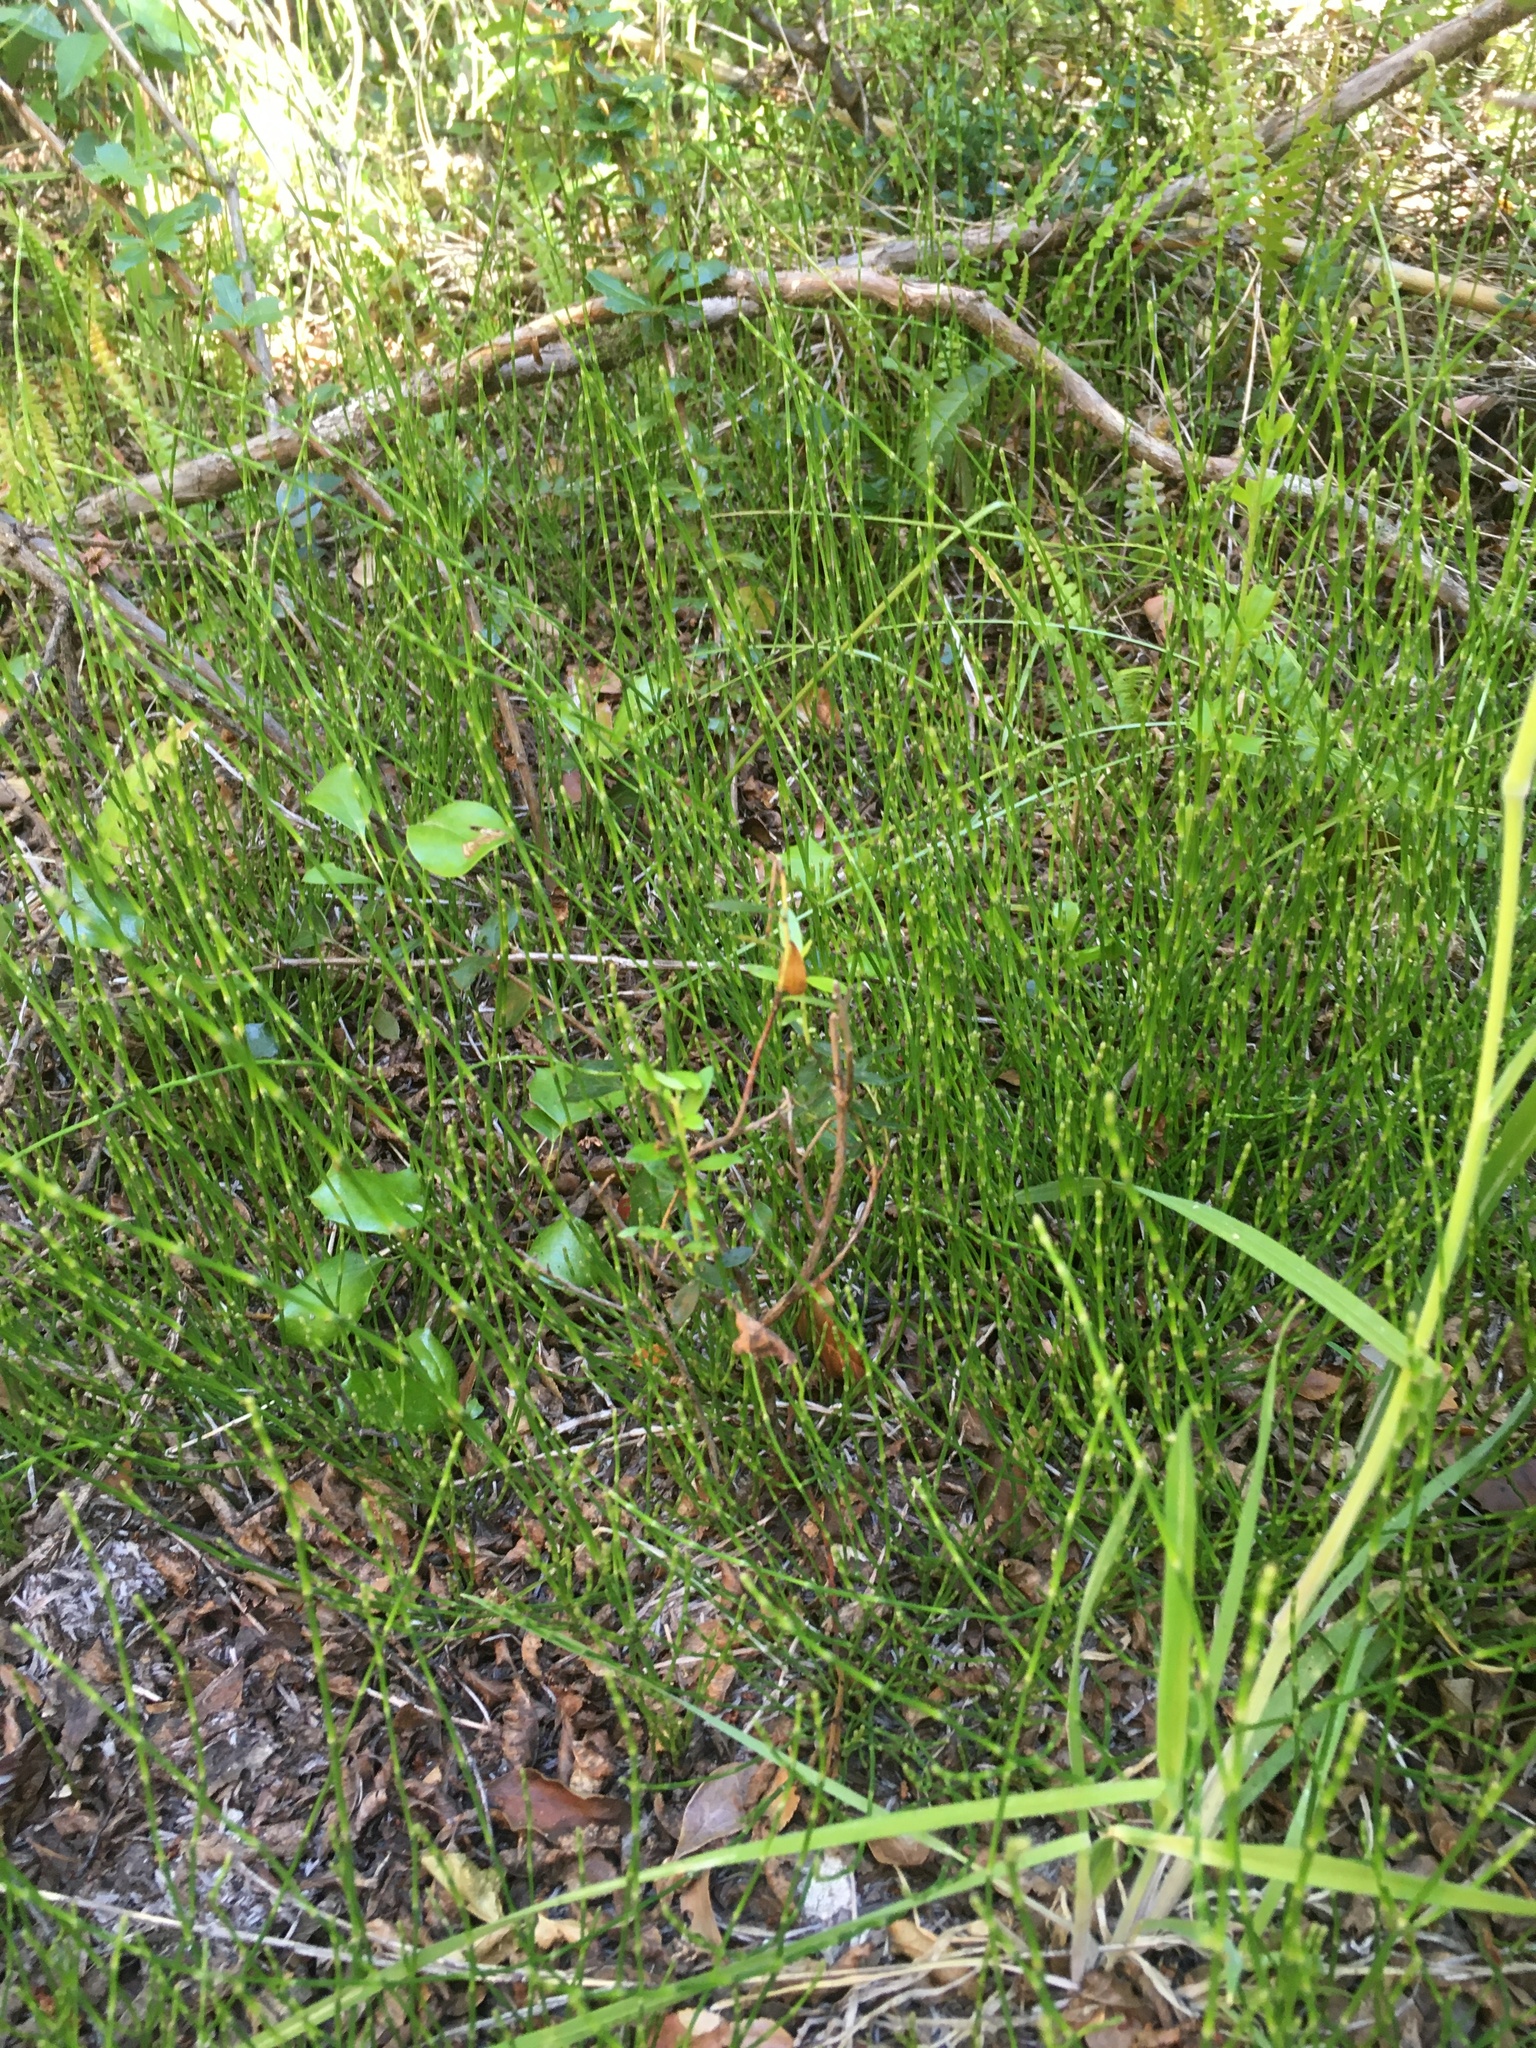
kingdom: Plantae
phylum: Tracheophyta
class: Polypodiopsida
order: Equisetales
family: Equisetaceae
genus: Equisetum
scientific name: Equisetum bogotense
